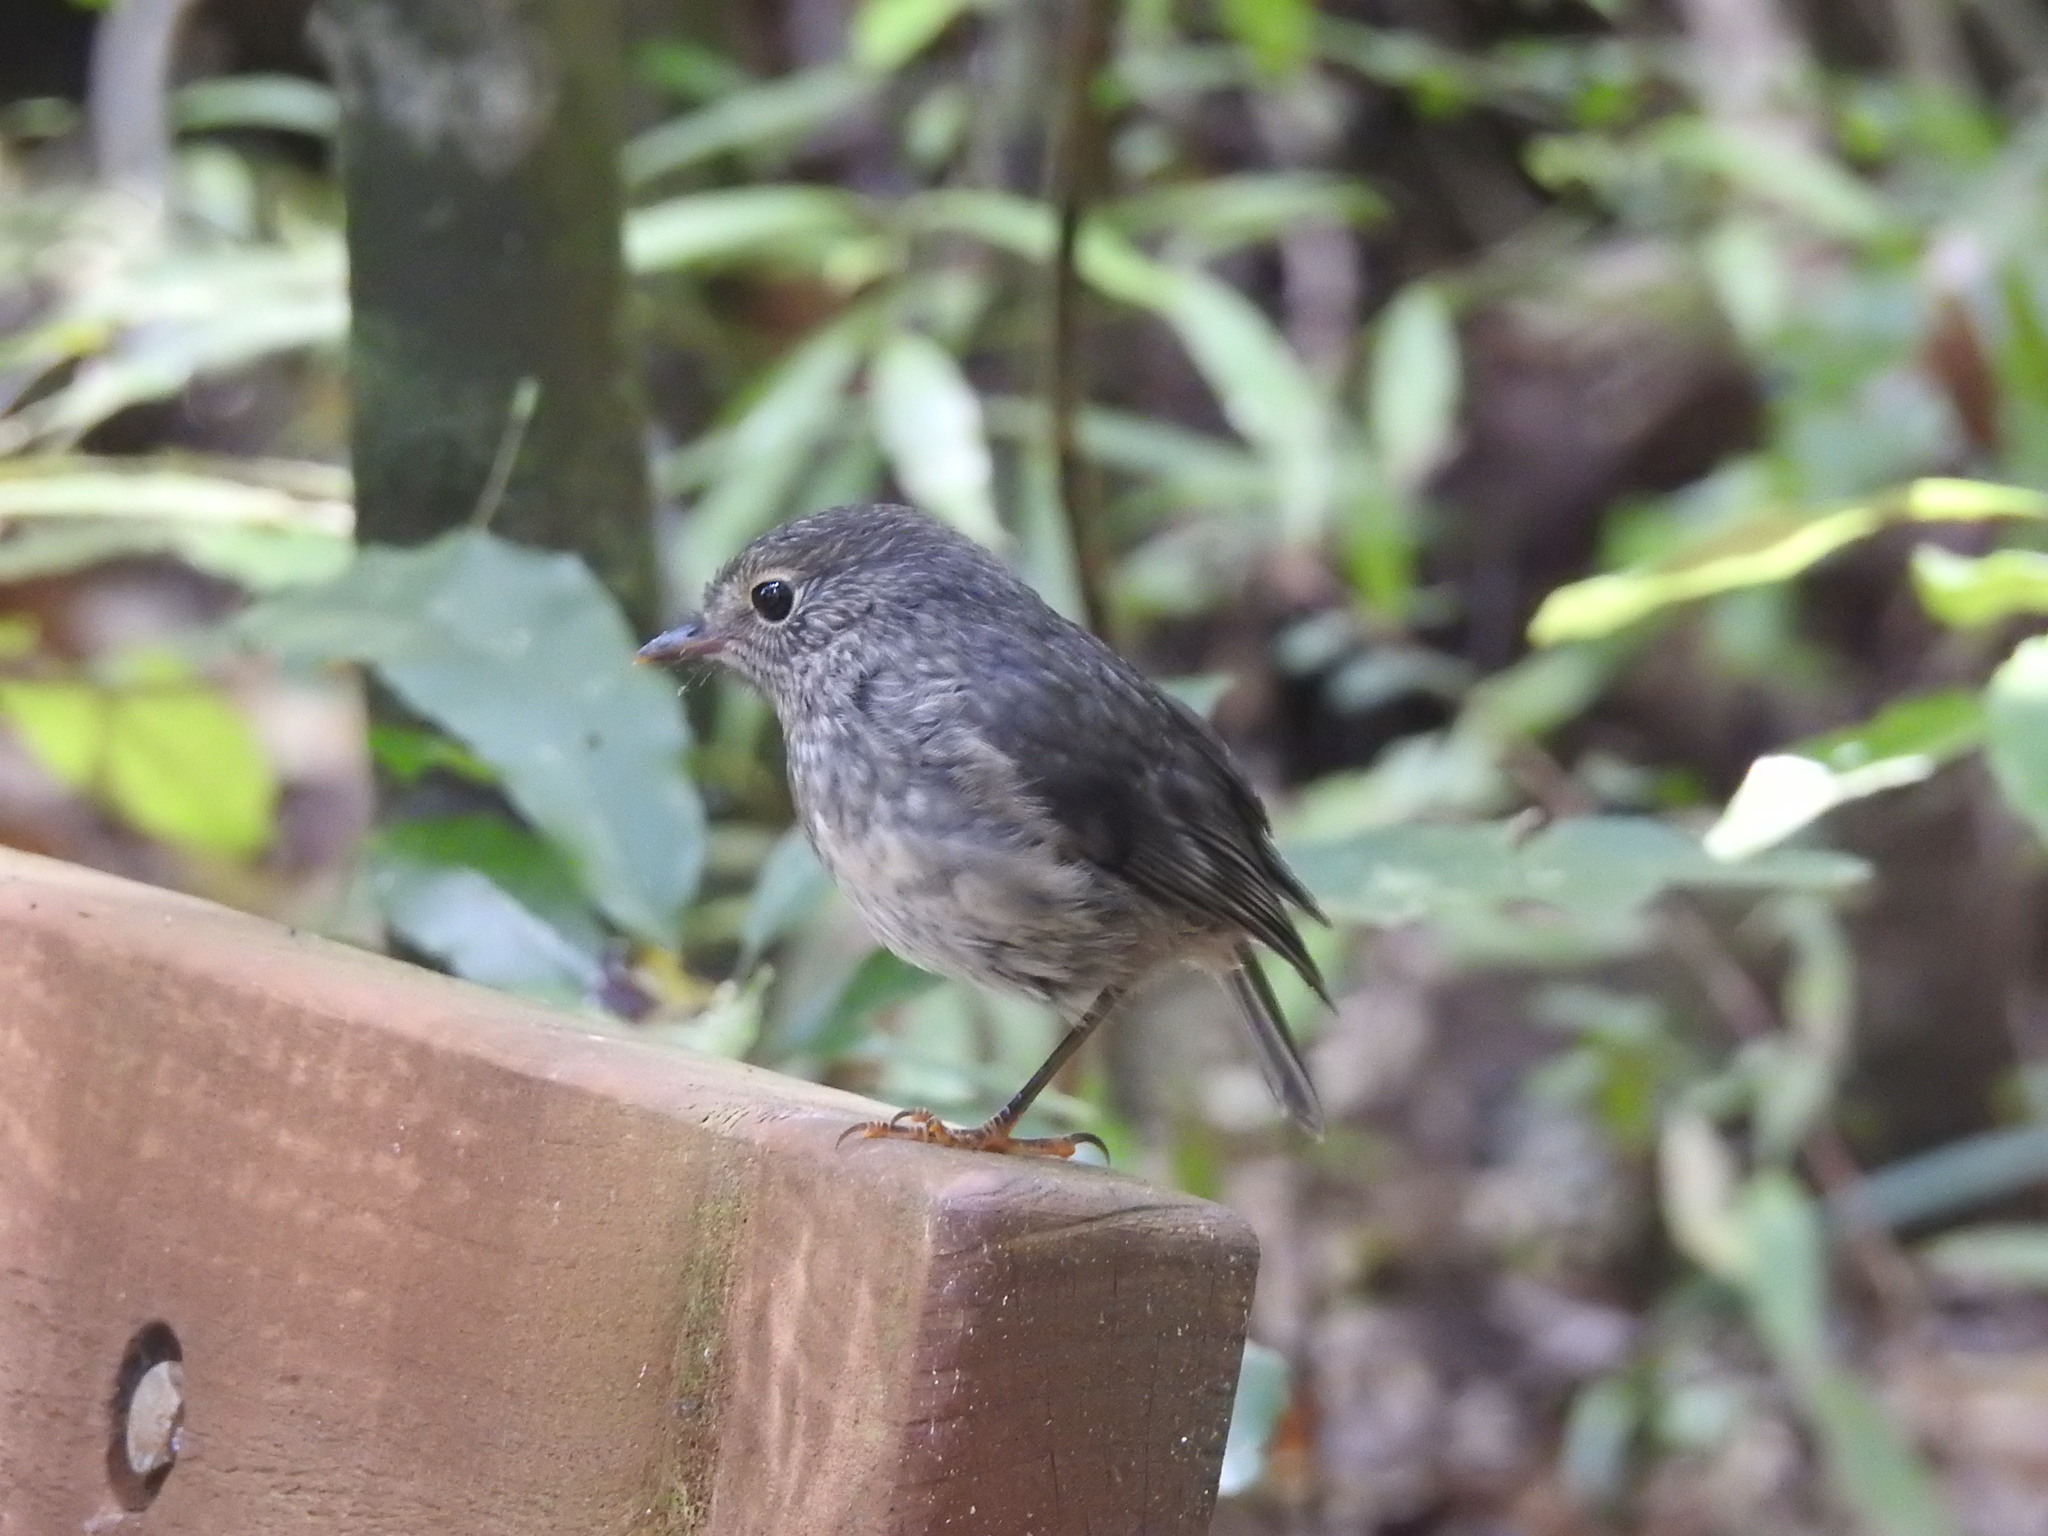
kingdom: Animalia
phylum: Chordata
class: Aves
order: Passeriformes
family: Petroicidae
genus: Petroica
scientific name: Petroica australis
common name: New zealand robin
